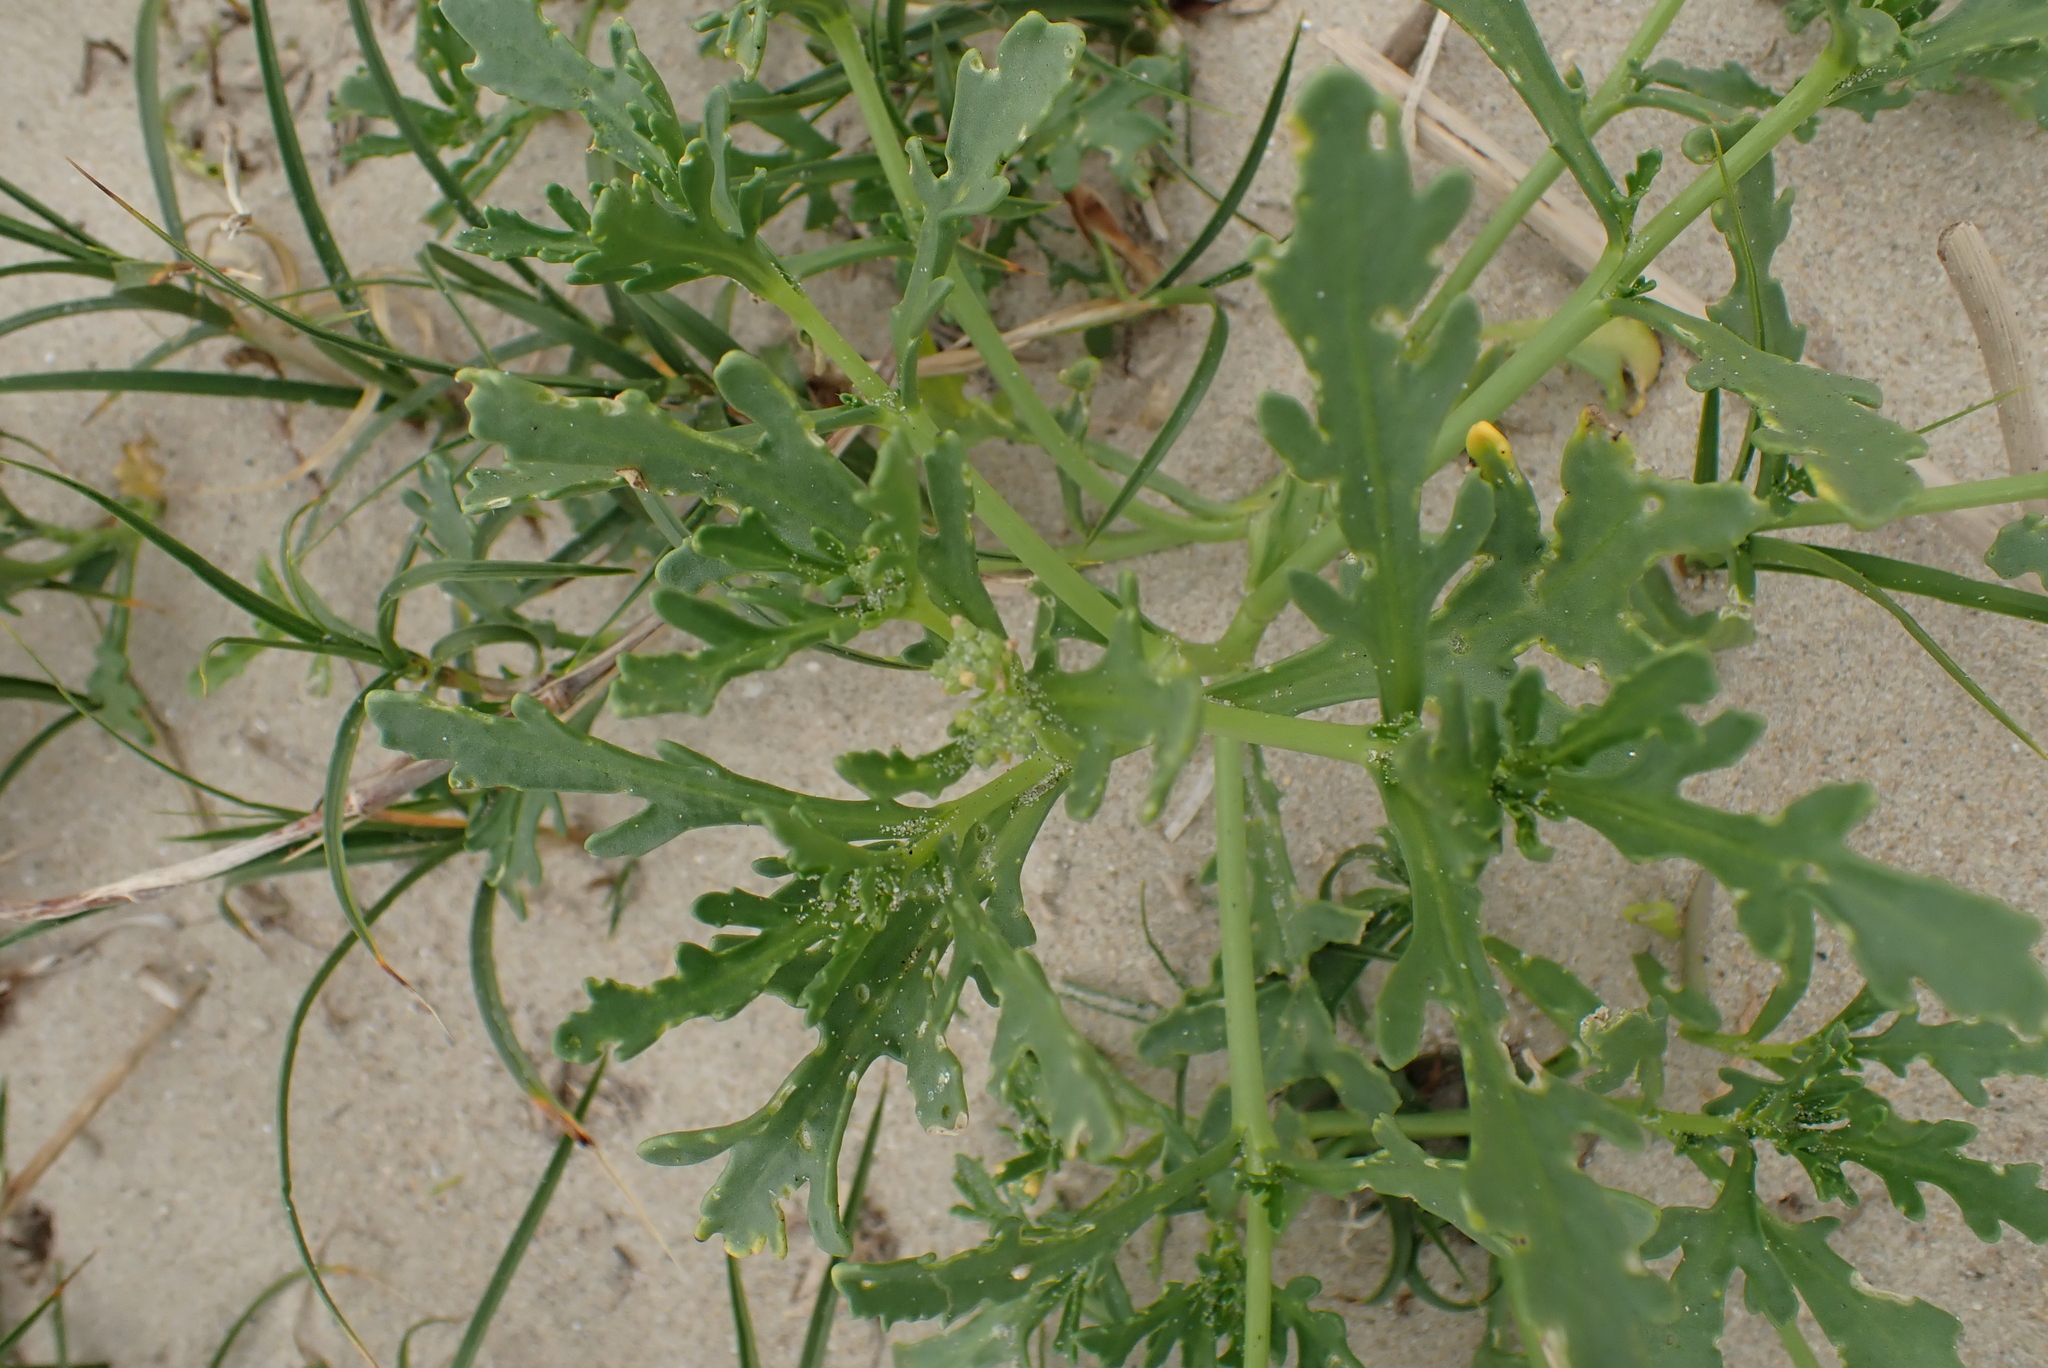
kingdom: Plantae
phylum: Tracheophyta
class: Magnoliopsida
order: Brassicales
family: Brassicaceae
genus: Cakile
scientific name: Cakile maritima
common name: Sea rocket
